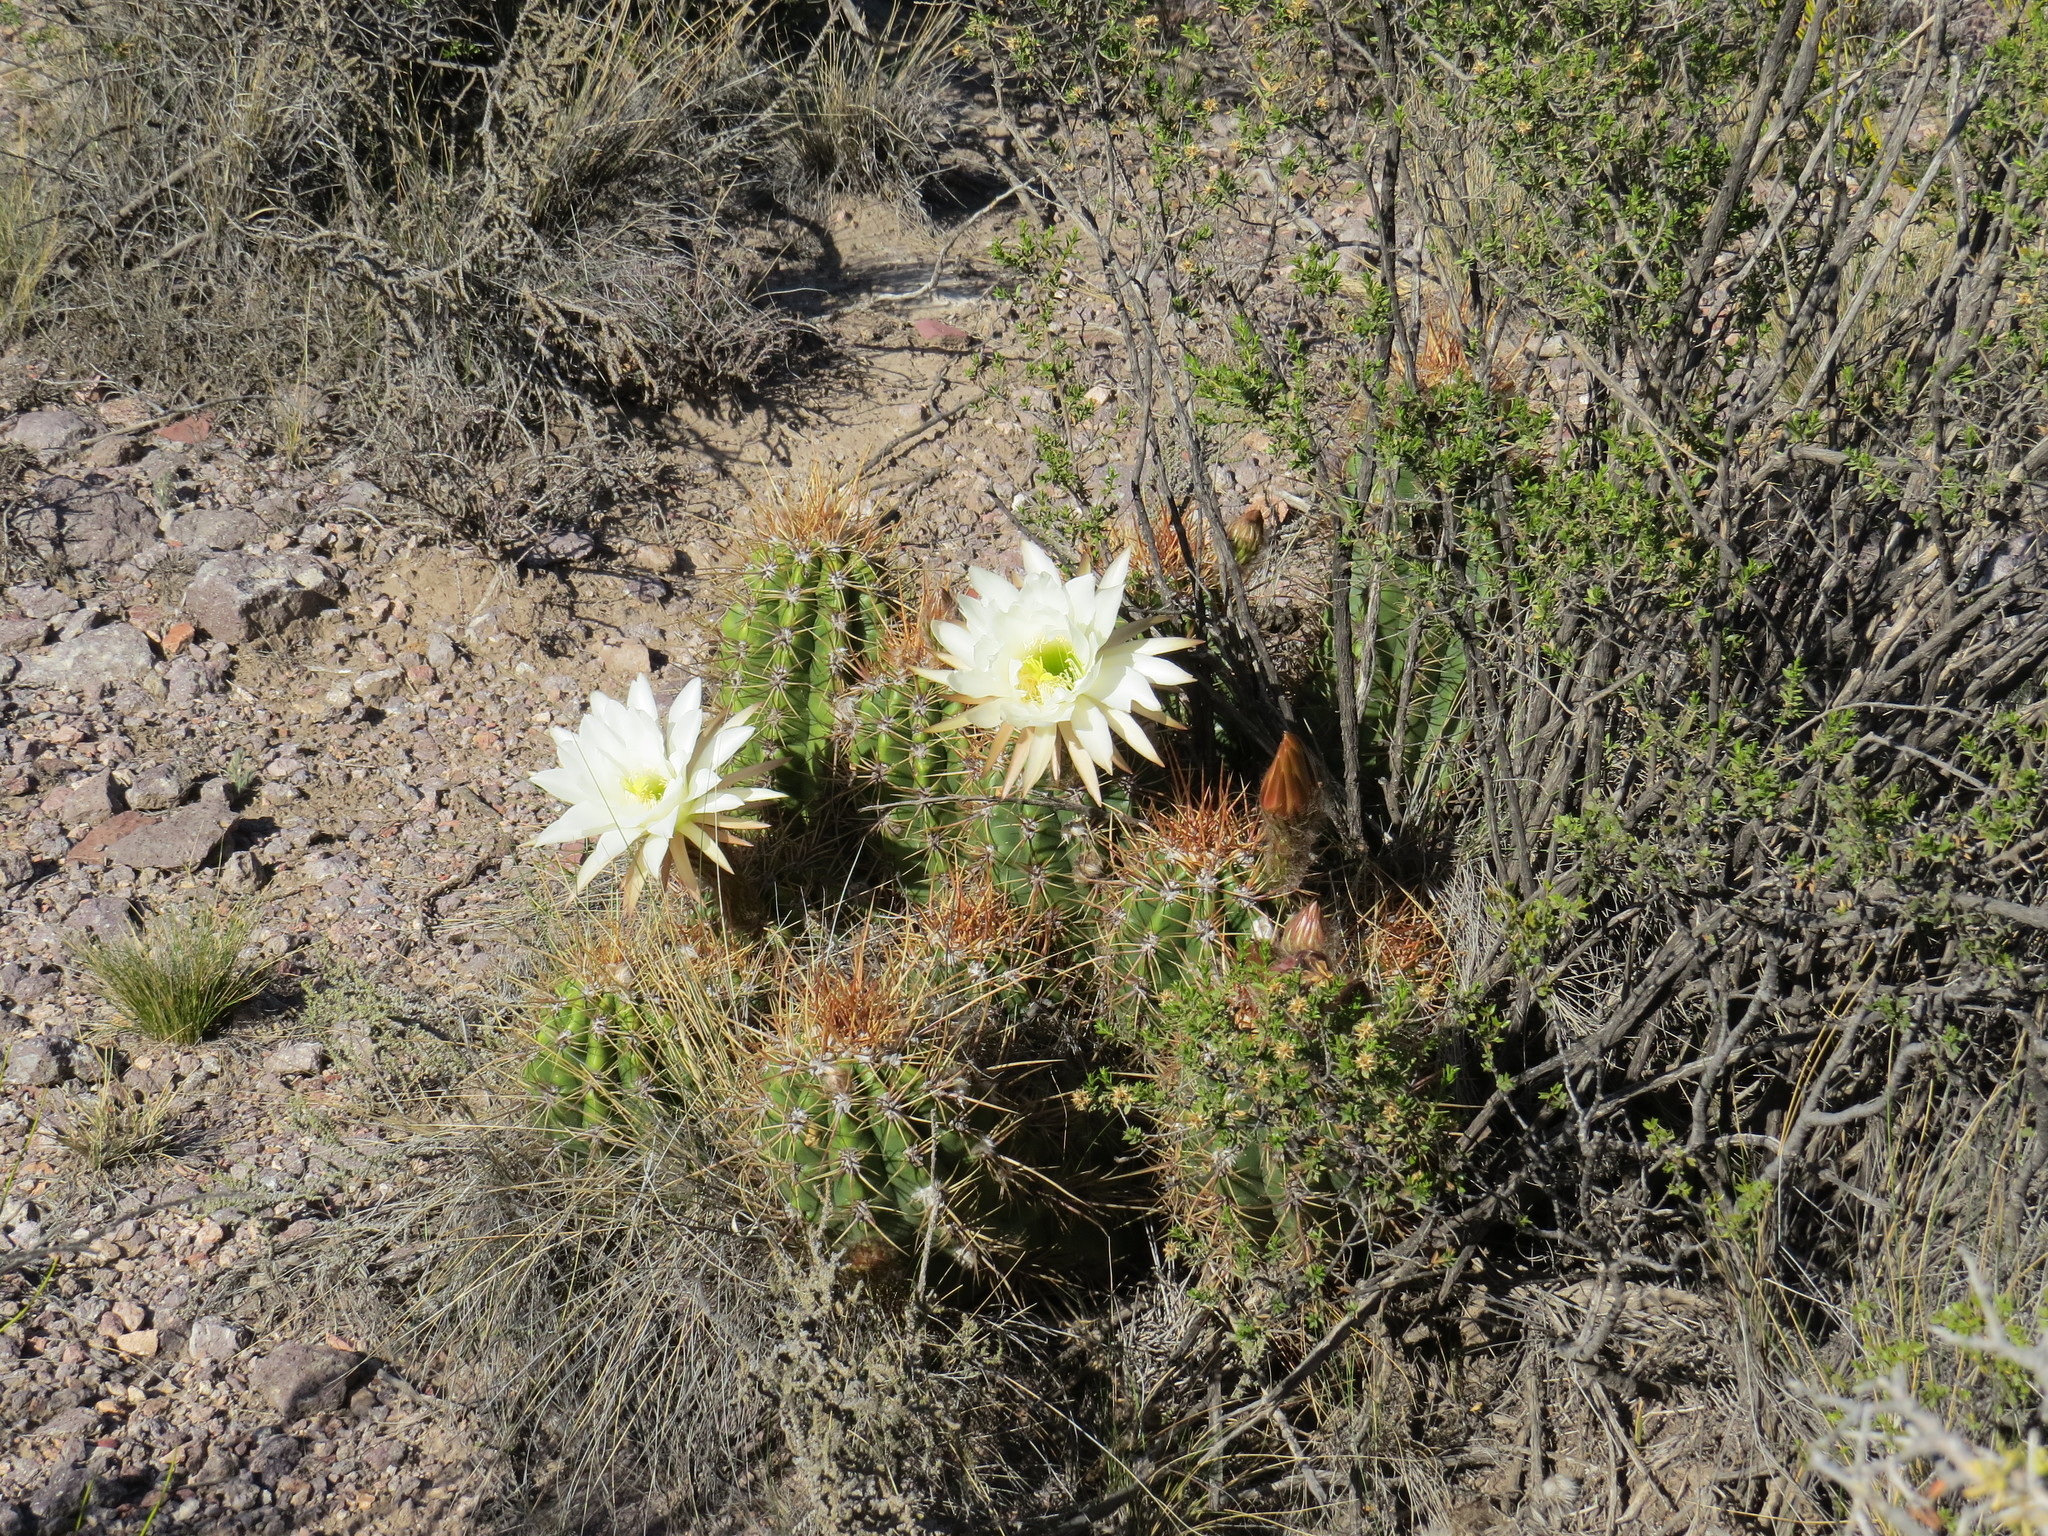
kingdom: Plantae
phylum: Tracheophyta
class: Magnoliopsida
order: Caryophyllales
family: Cactaceae
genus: Soehrensia
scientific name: Soehrensia candicans
